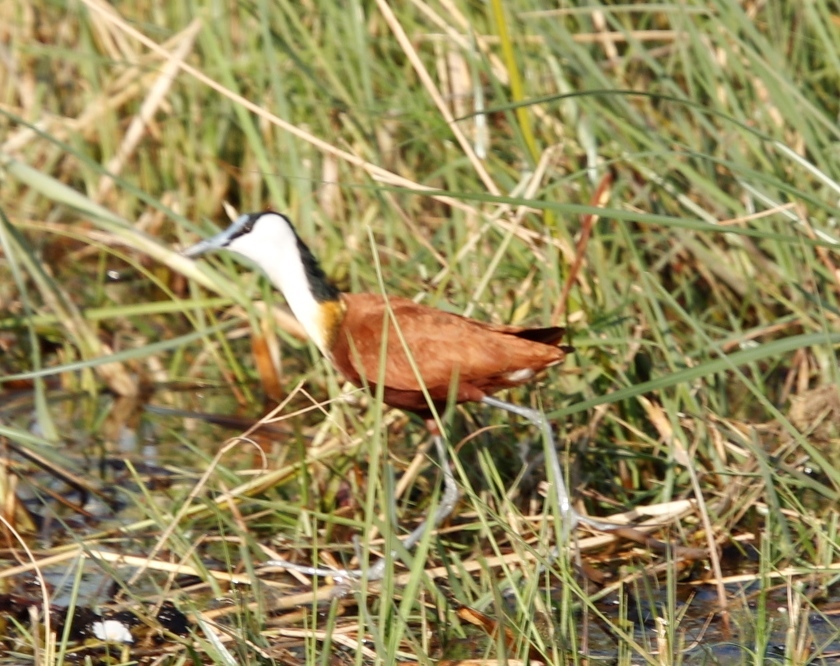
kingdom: Animalia
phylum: Chordata
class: Aves
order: Charadriiformes
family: Jacanidae
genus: Actophilornis
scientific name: Actophilornis africanus
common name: African jacana
